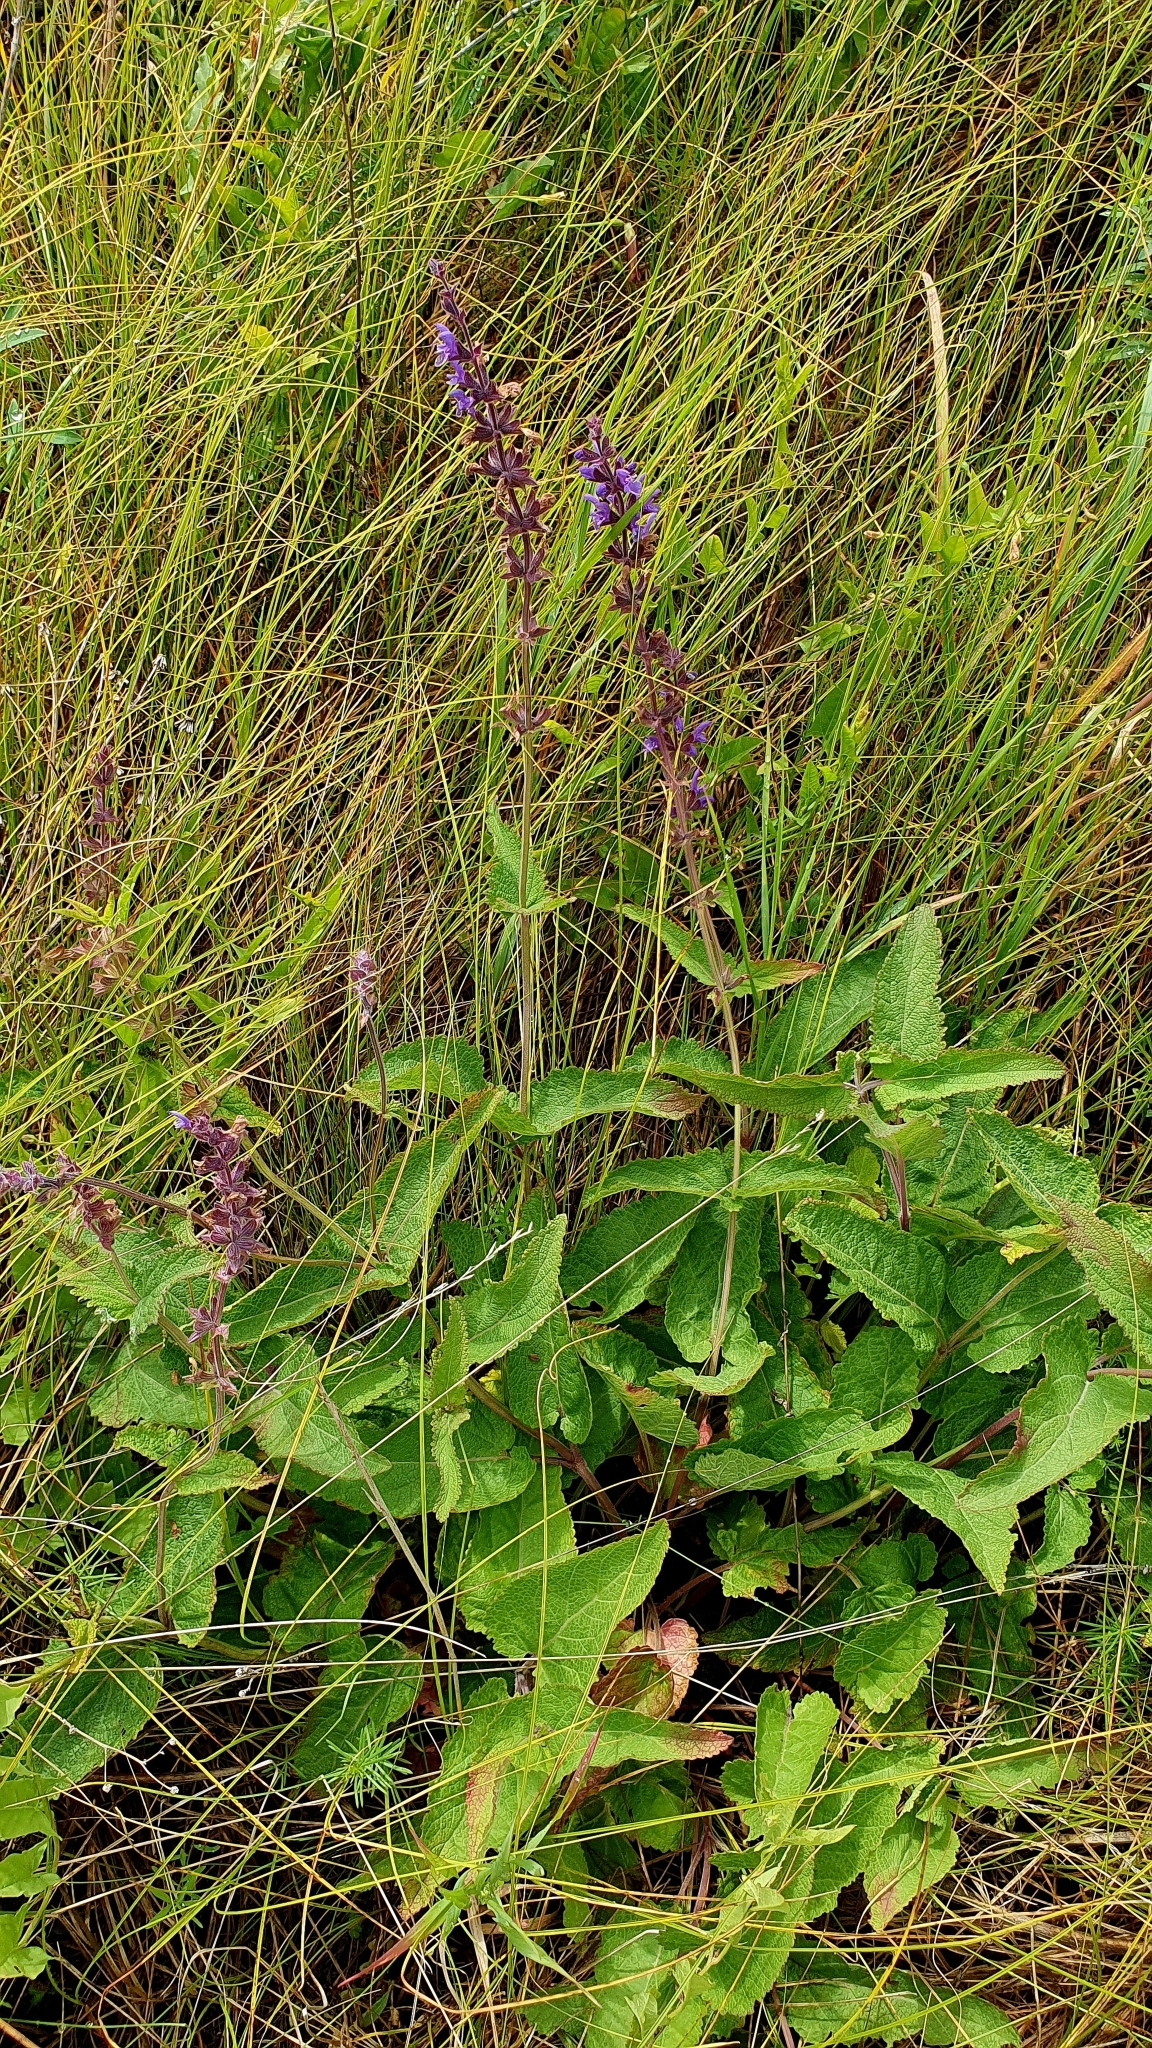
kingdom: Plantae
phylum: Tracheophyta
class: Magnoliopsida
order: Lamiales
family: Lamiaceae
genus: Salvia
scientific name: Salvia dumetorum
